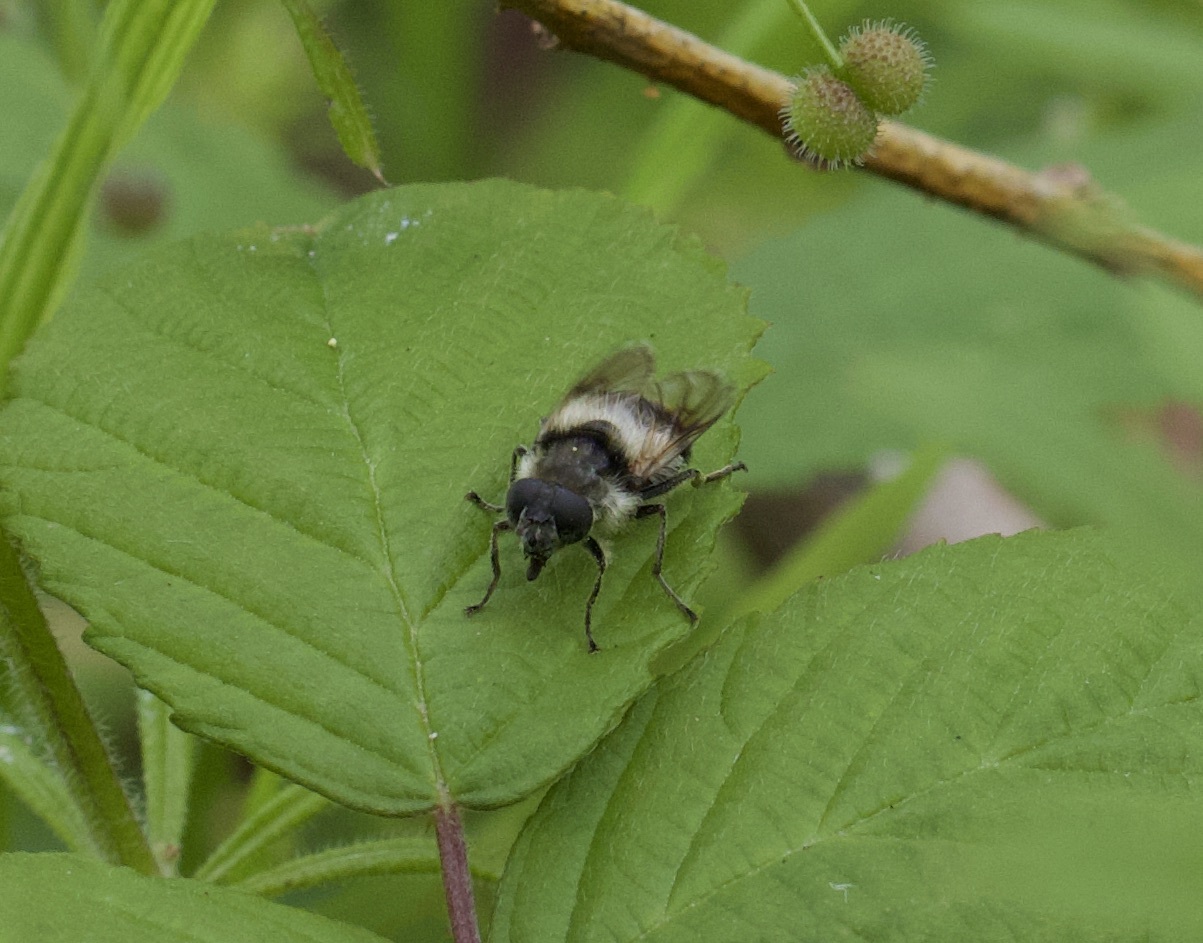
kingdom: Animalia
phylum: Arthropoda
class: Insecta
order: Diptera
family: Syrphidae
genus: Cheilosia
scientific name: Cheilosia illustrata
